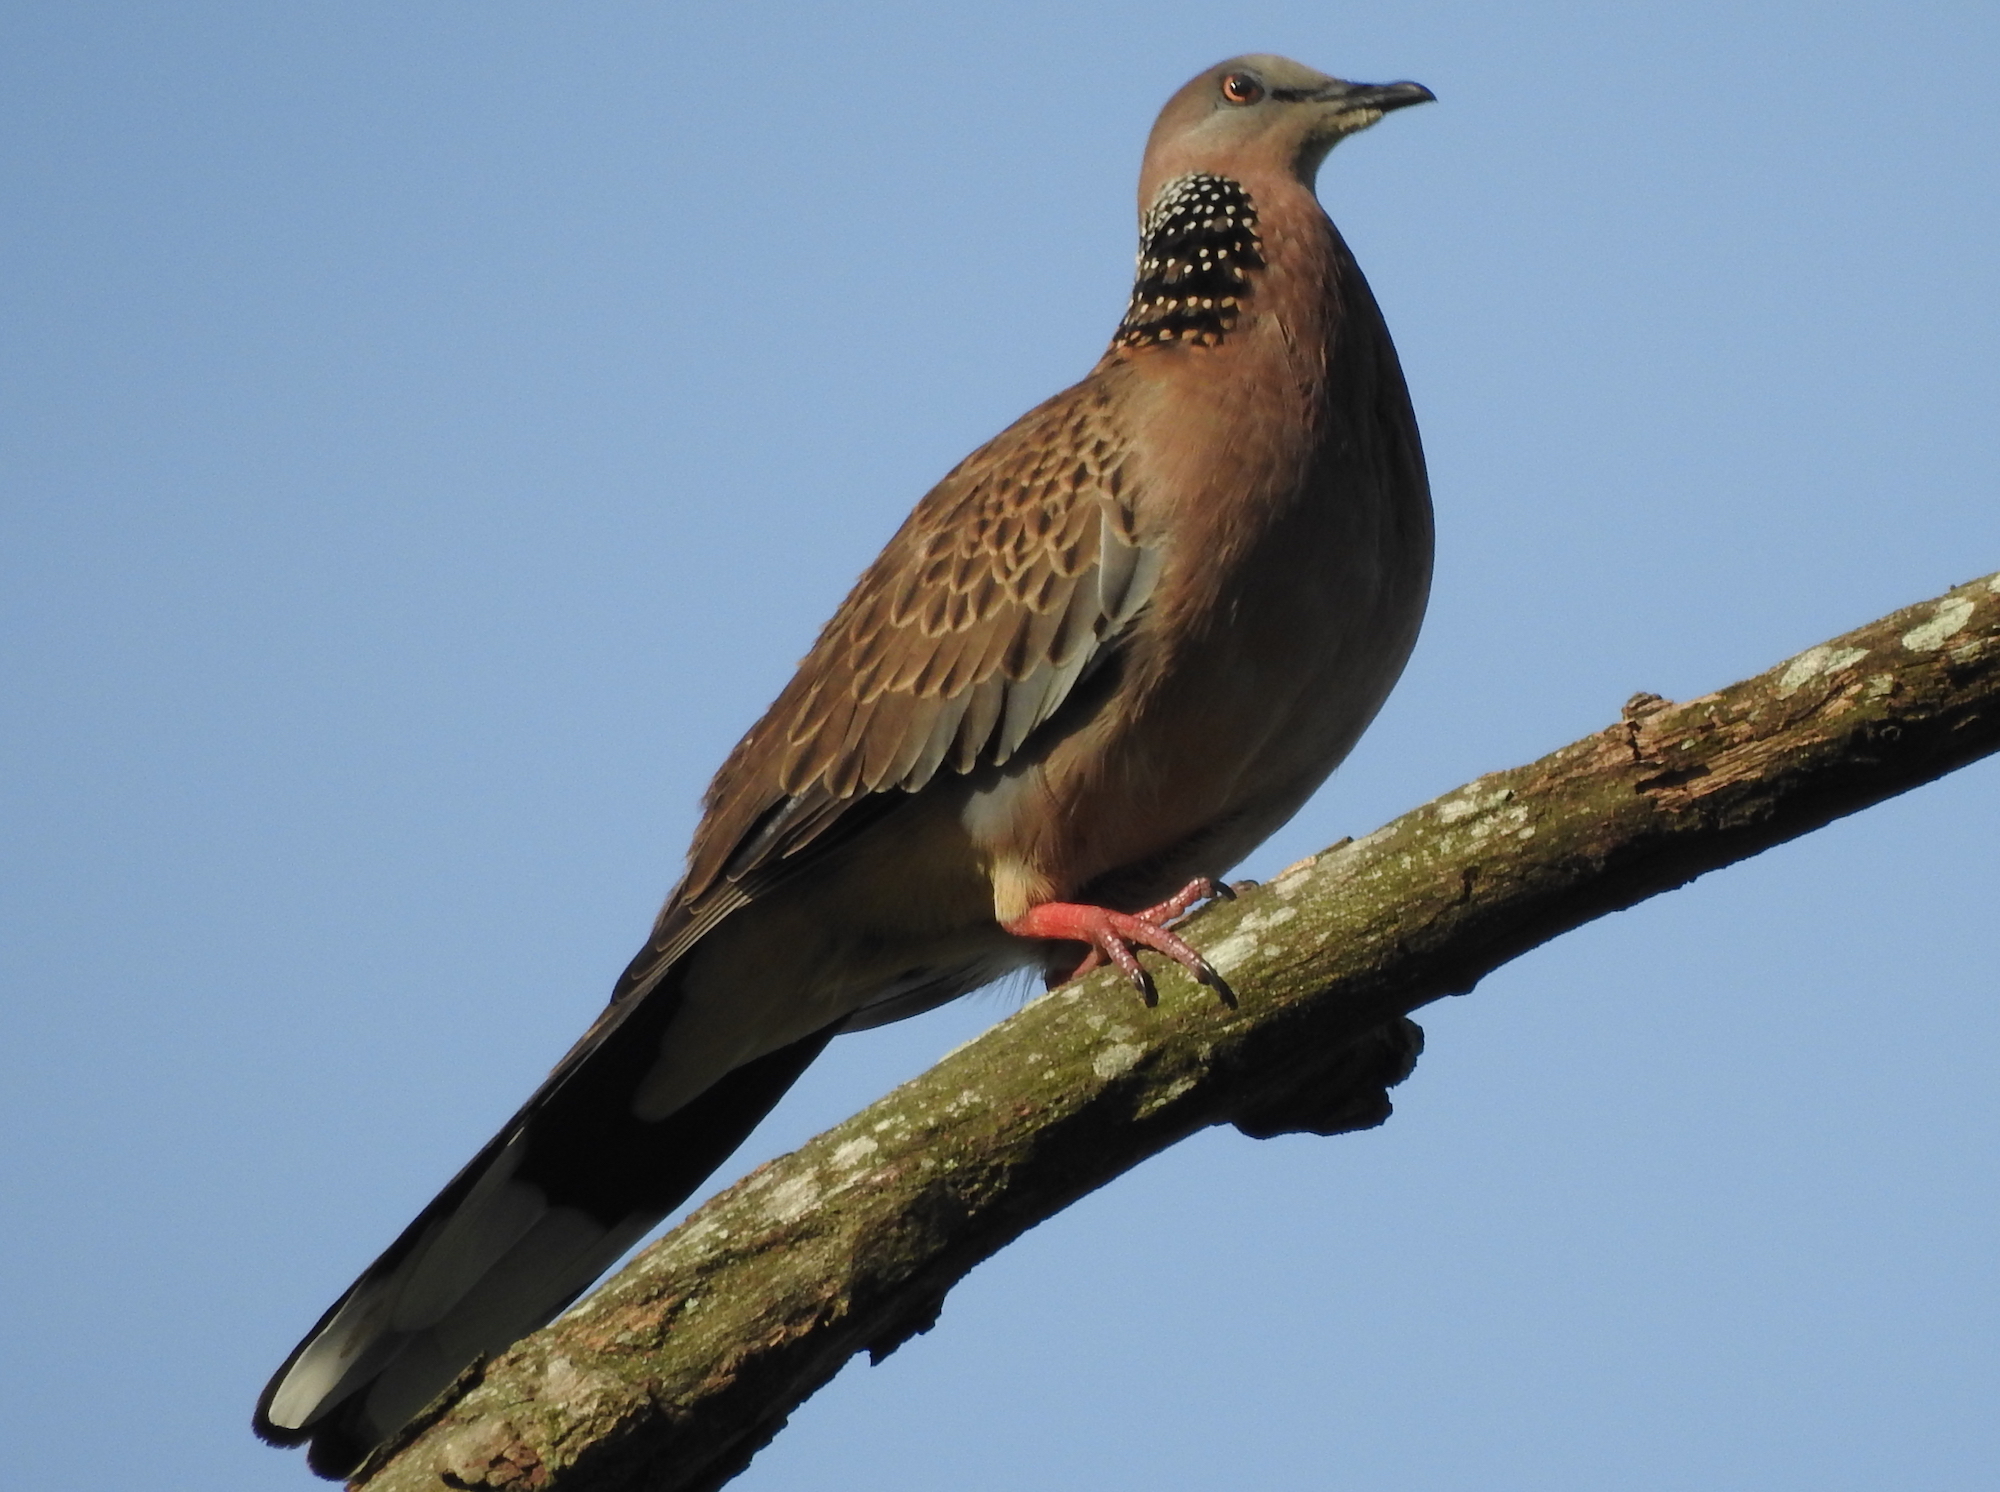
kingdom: Animalia
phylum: Chordata
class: Aves
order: Columbiformes
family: Columbidae
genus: Spilopelia
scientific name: Spilopelia chinensis
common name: Spotted dove
